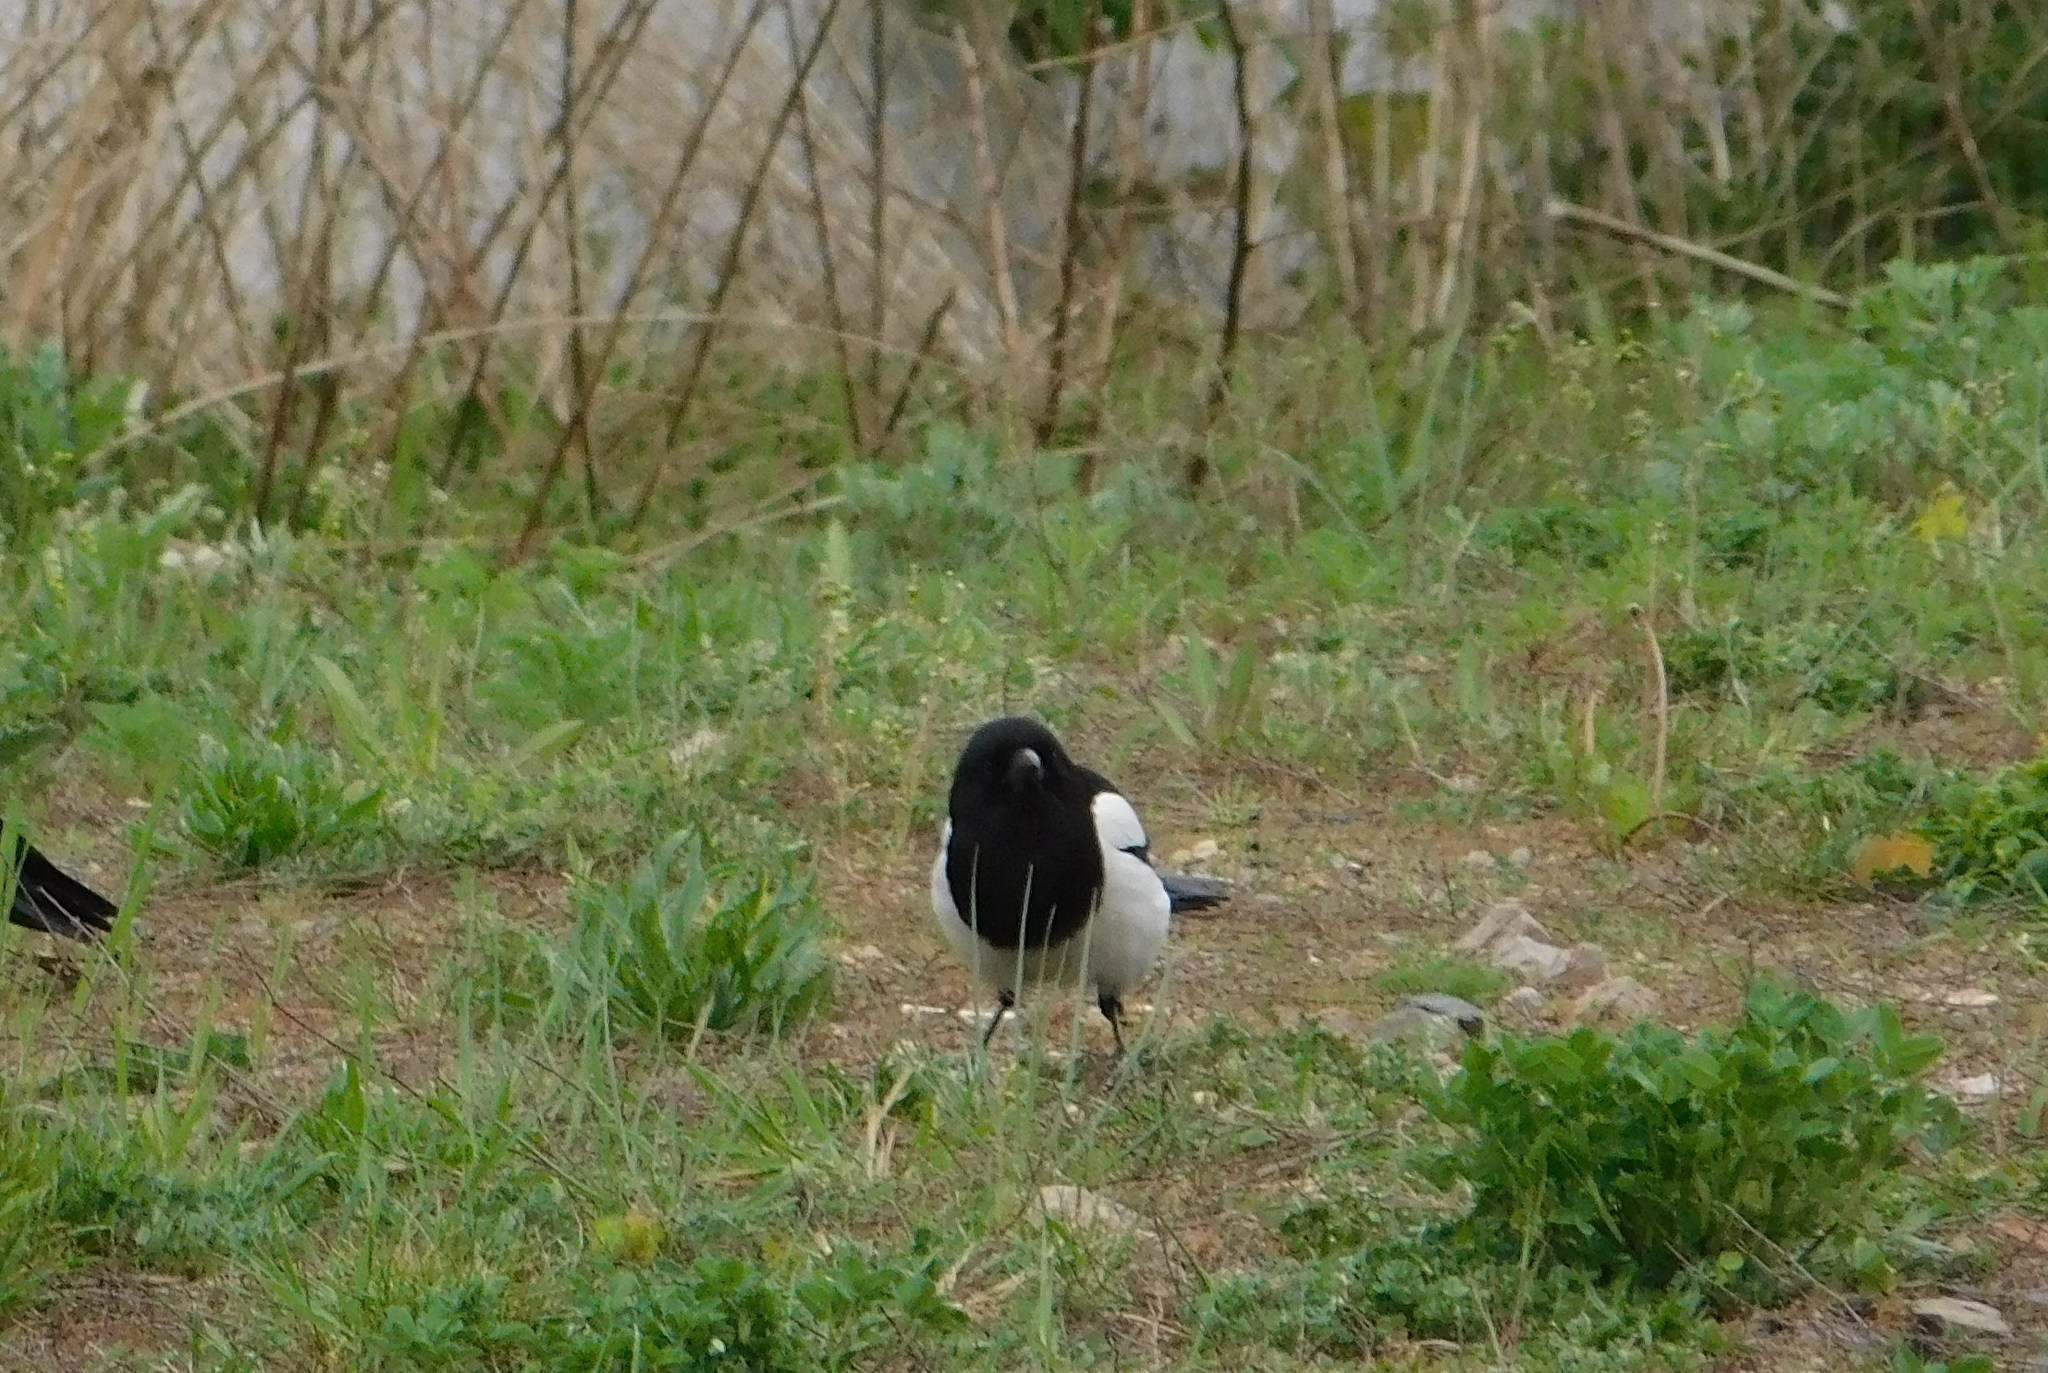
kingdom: Animalia
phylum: Chordata
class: Aves
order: Passeriformes
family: Corvidae
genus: Pica
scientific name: Pica pica
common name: Eurasian magpie
